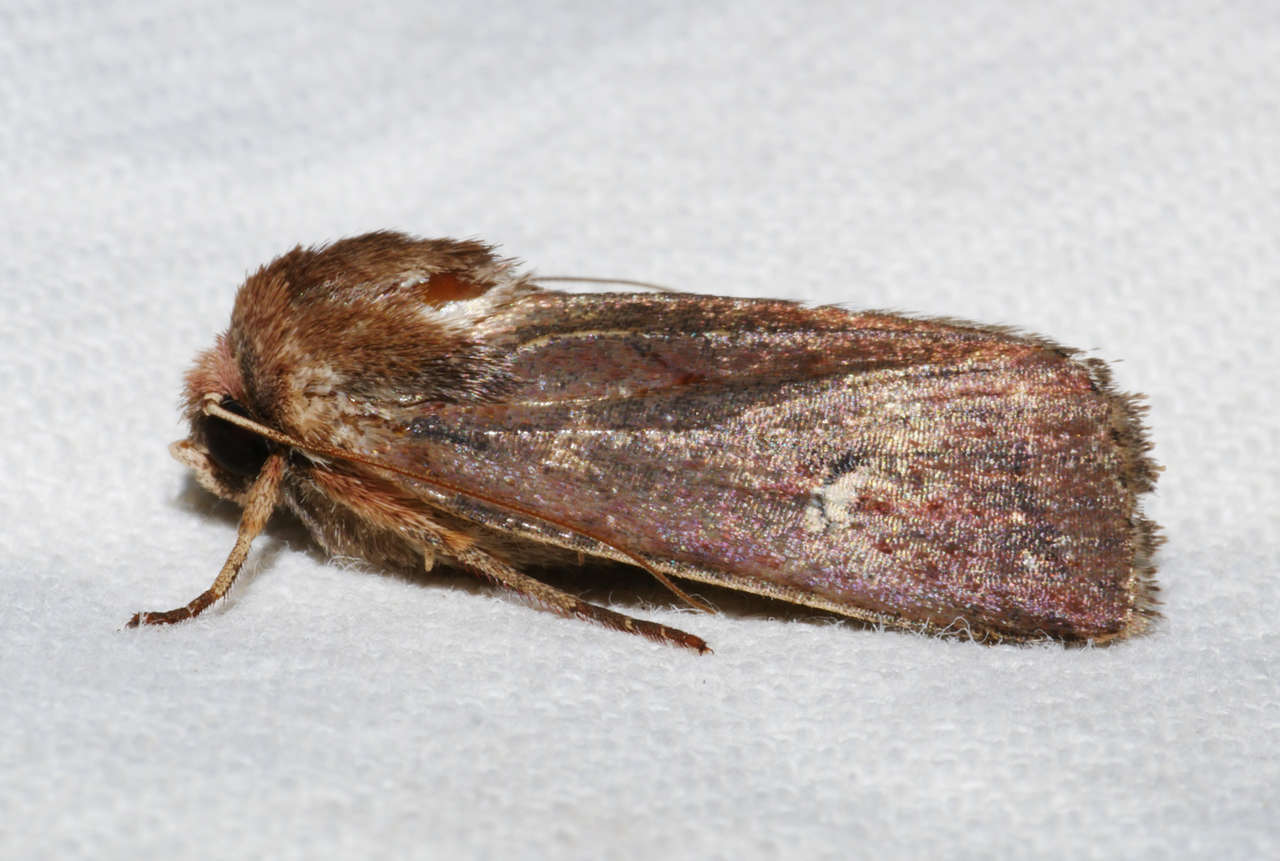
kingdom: Animalia
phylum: Arthropoda
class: Insecta
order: Lepidoptera
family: Noctuidae
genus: Proteuxoa
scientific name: Proteuxoa bistrigula
